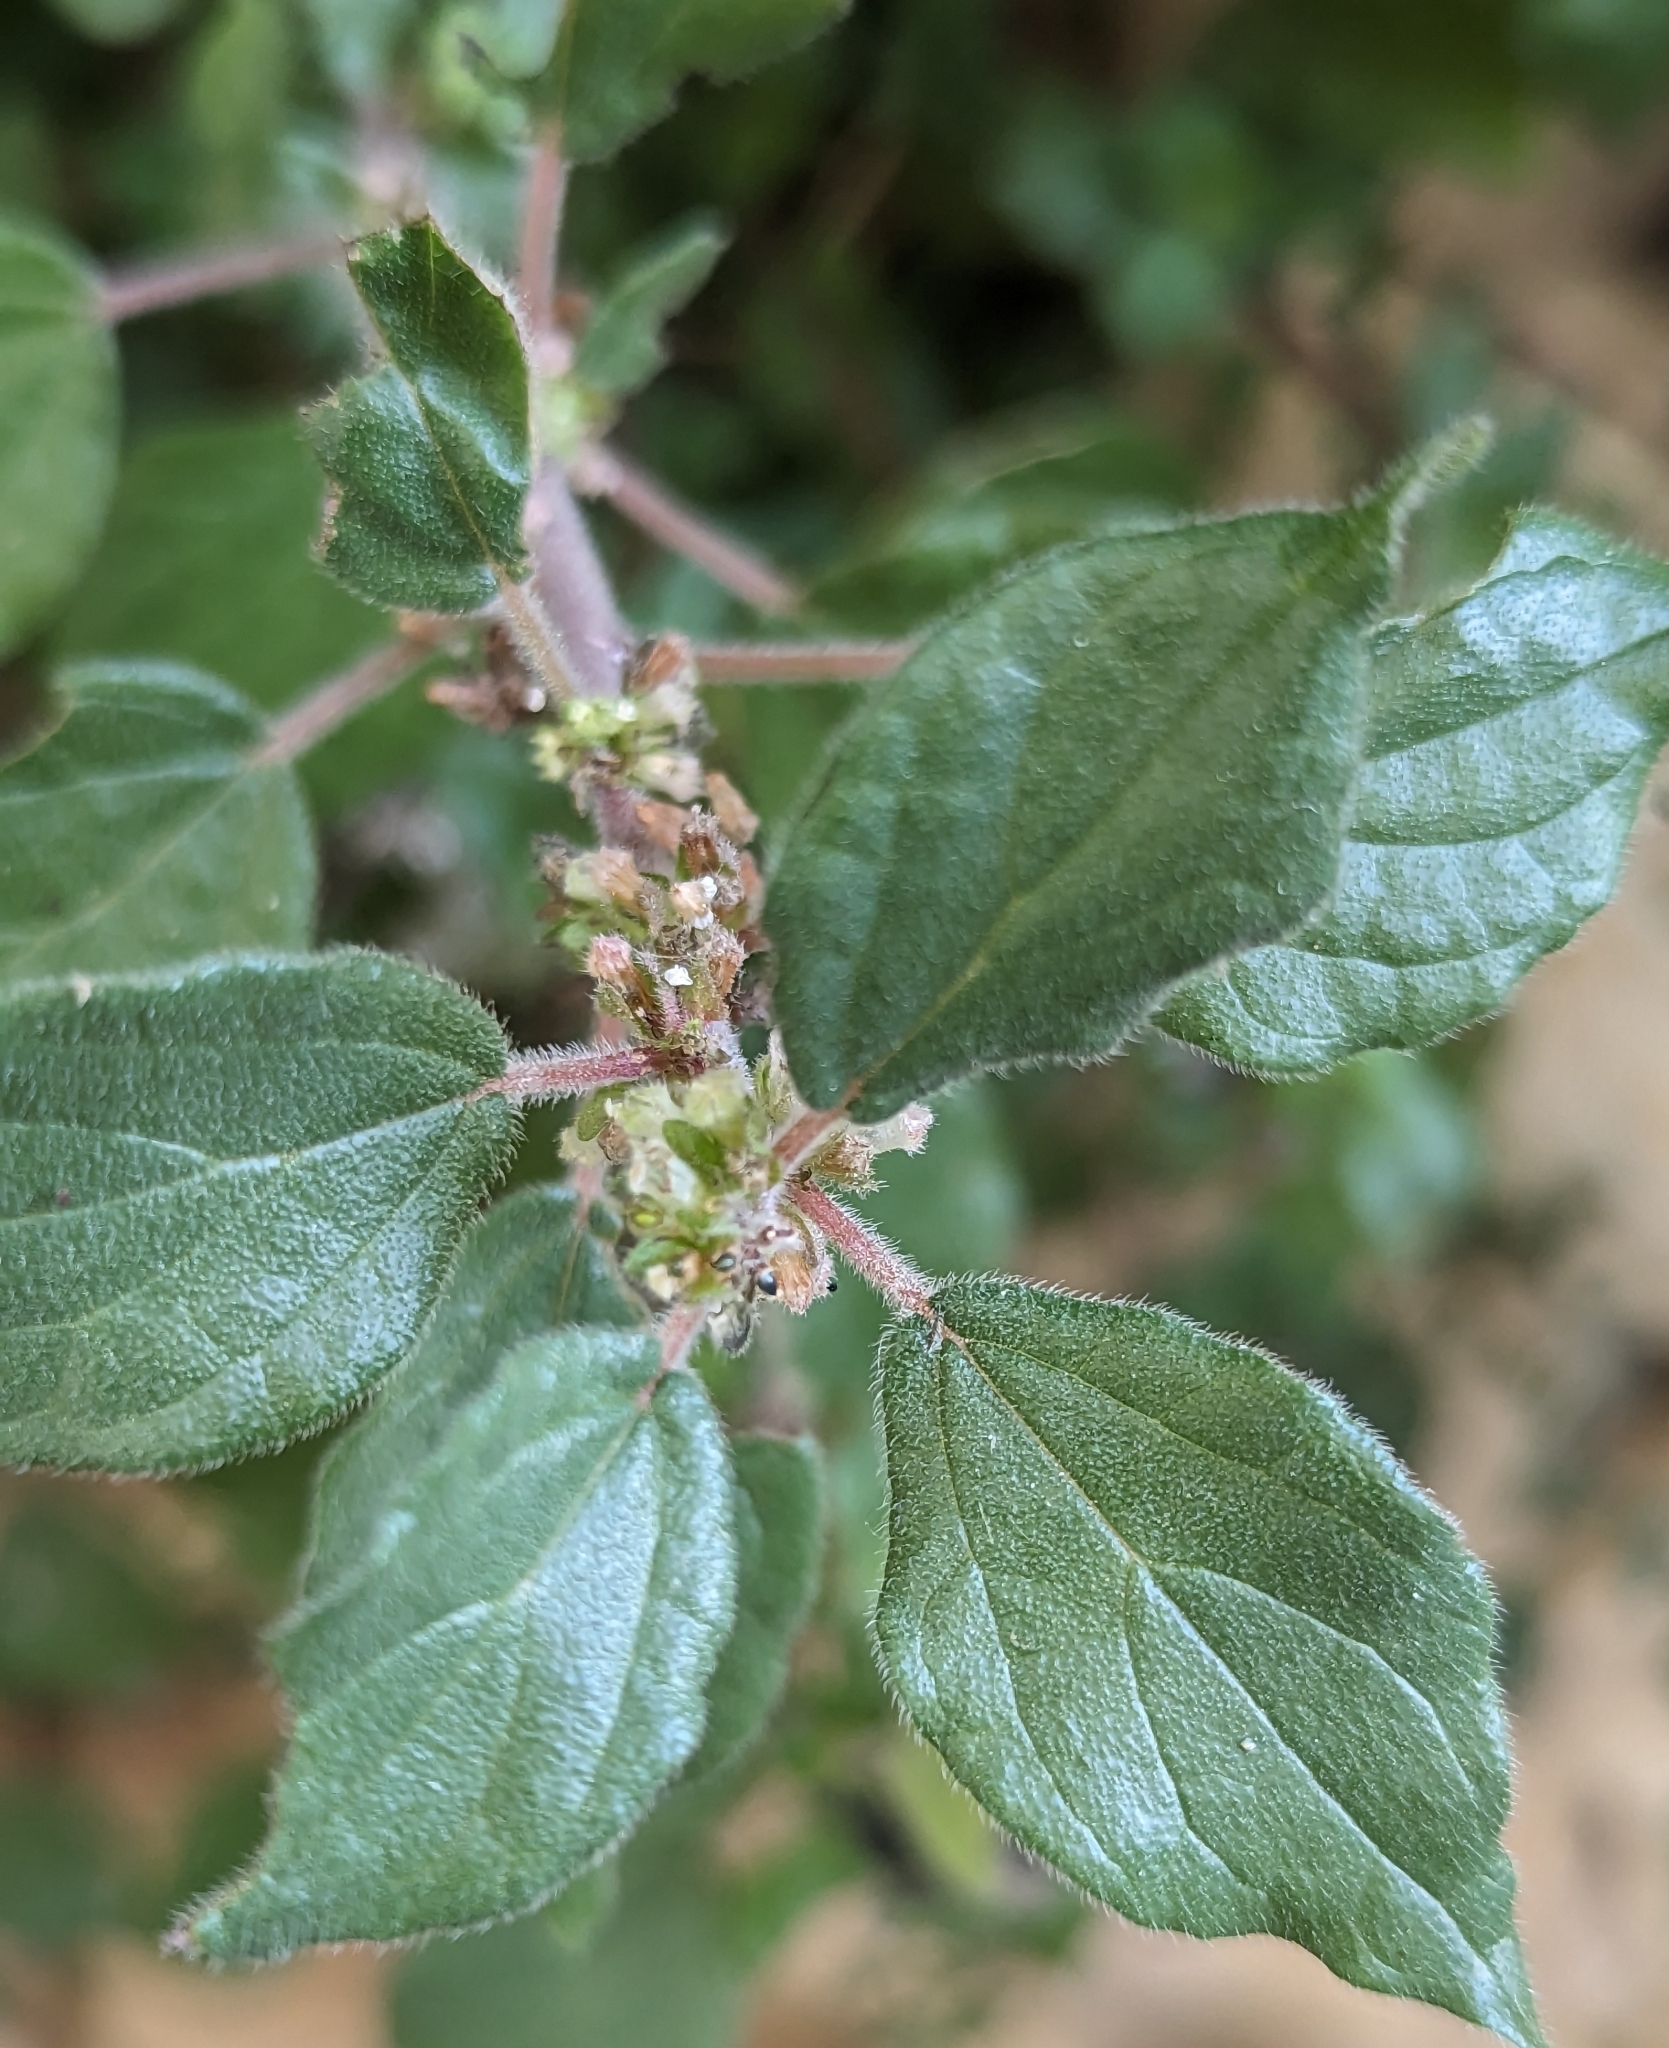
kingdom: Plantae
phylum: Tracheophyta
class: Magnoliopsida
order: Rosales
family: Urticaceae
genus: Parietaria
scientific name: Parietaria judaica
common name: Pellitory-of-the-wall
